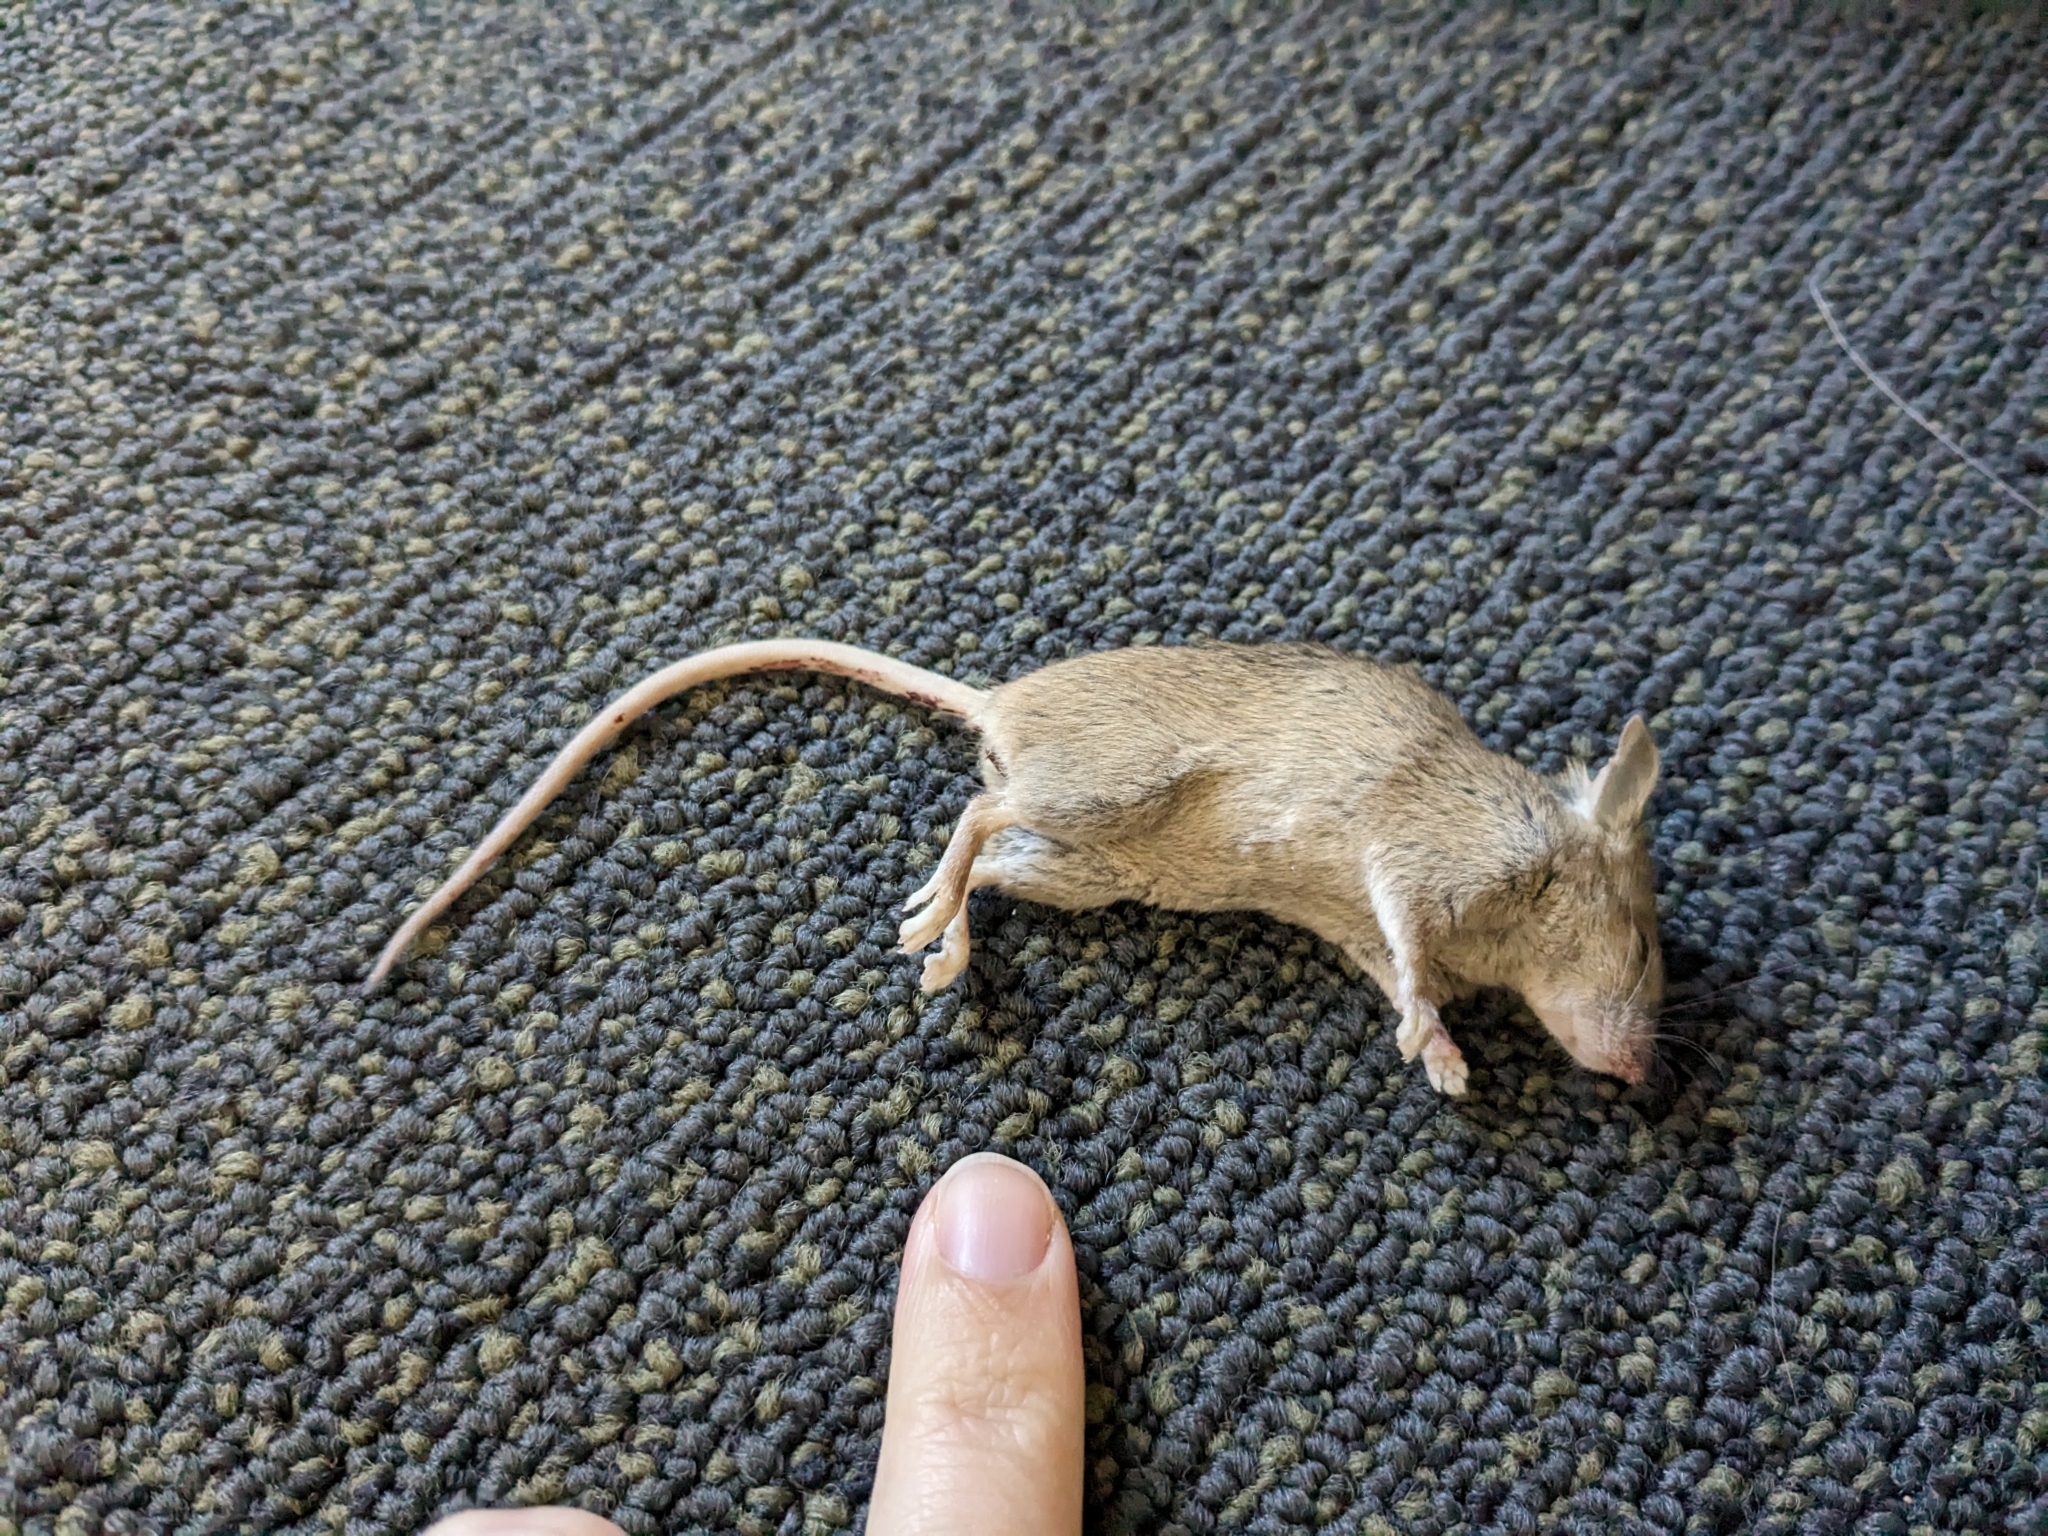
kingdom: Animalia
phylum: Chordata
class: Mammalia
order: Rodentia
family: Muridae
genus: Mus
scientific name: Mus musculus
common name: House mouse
